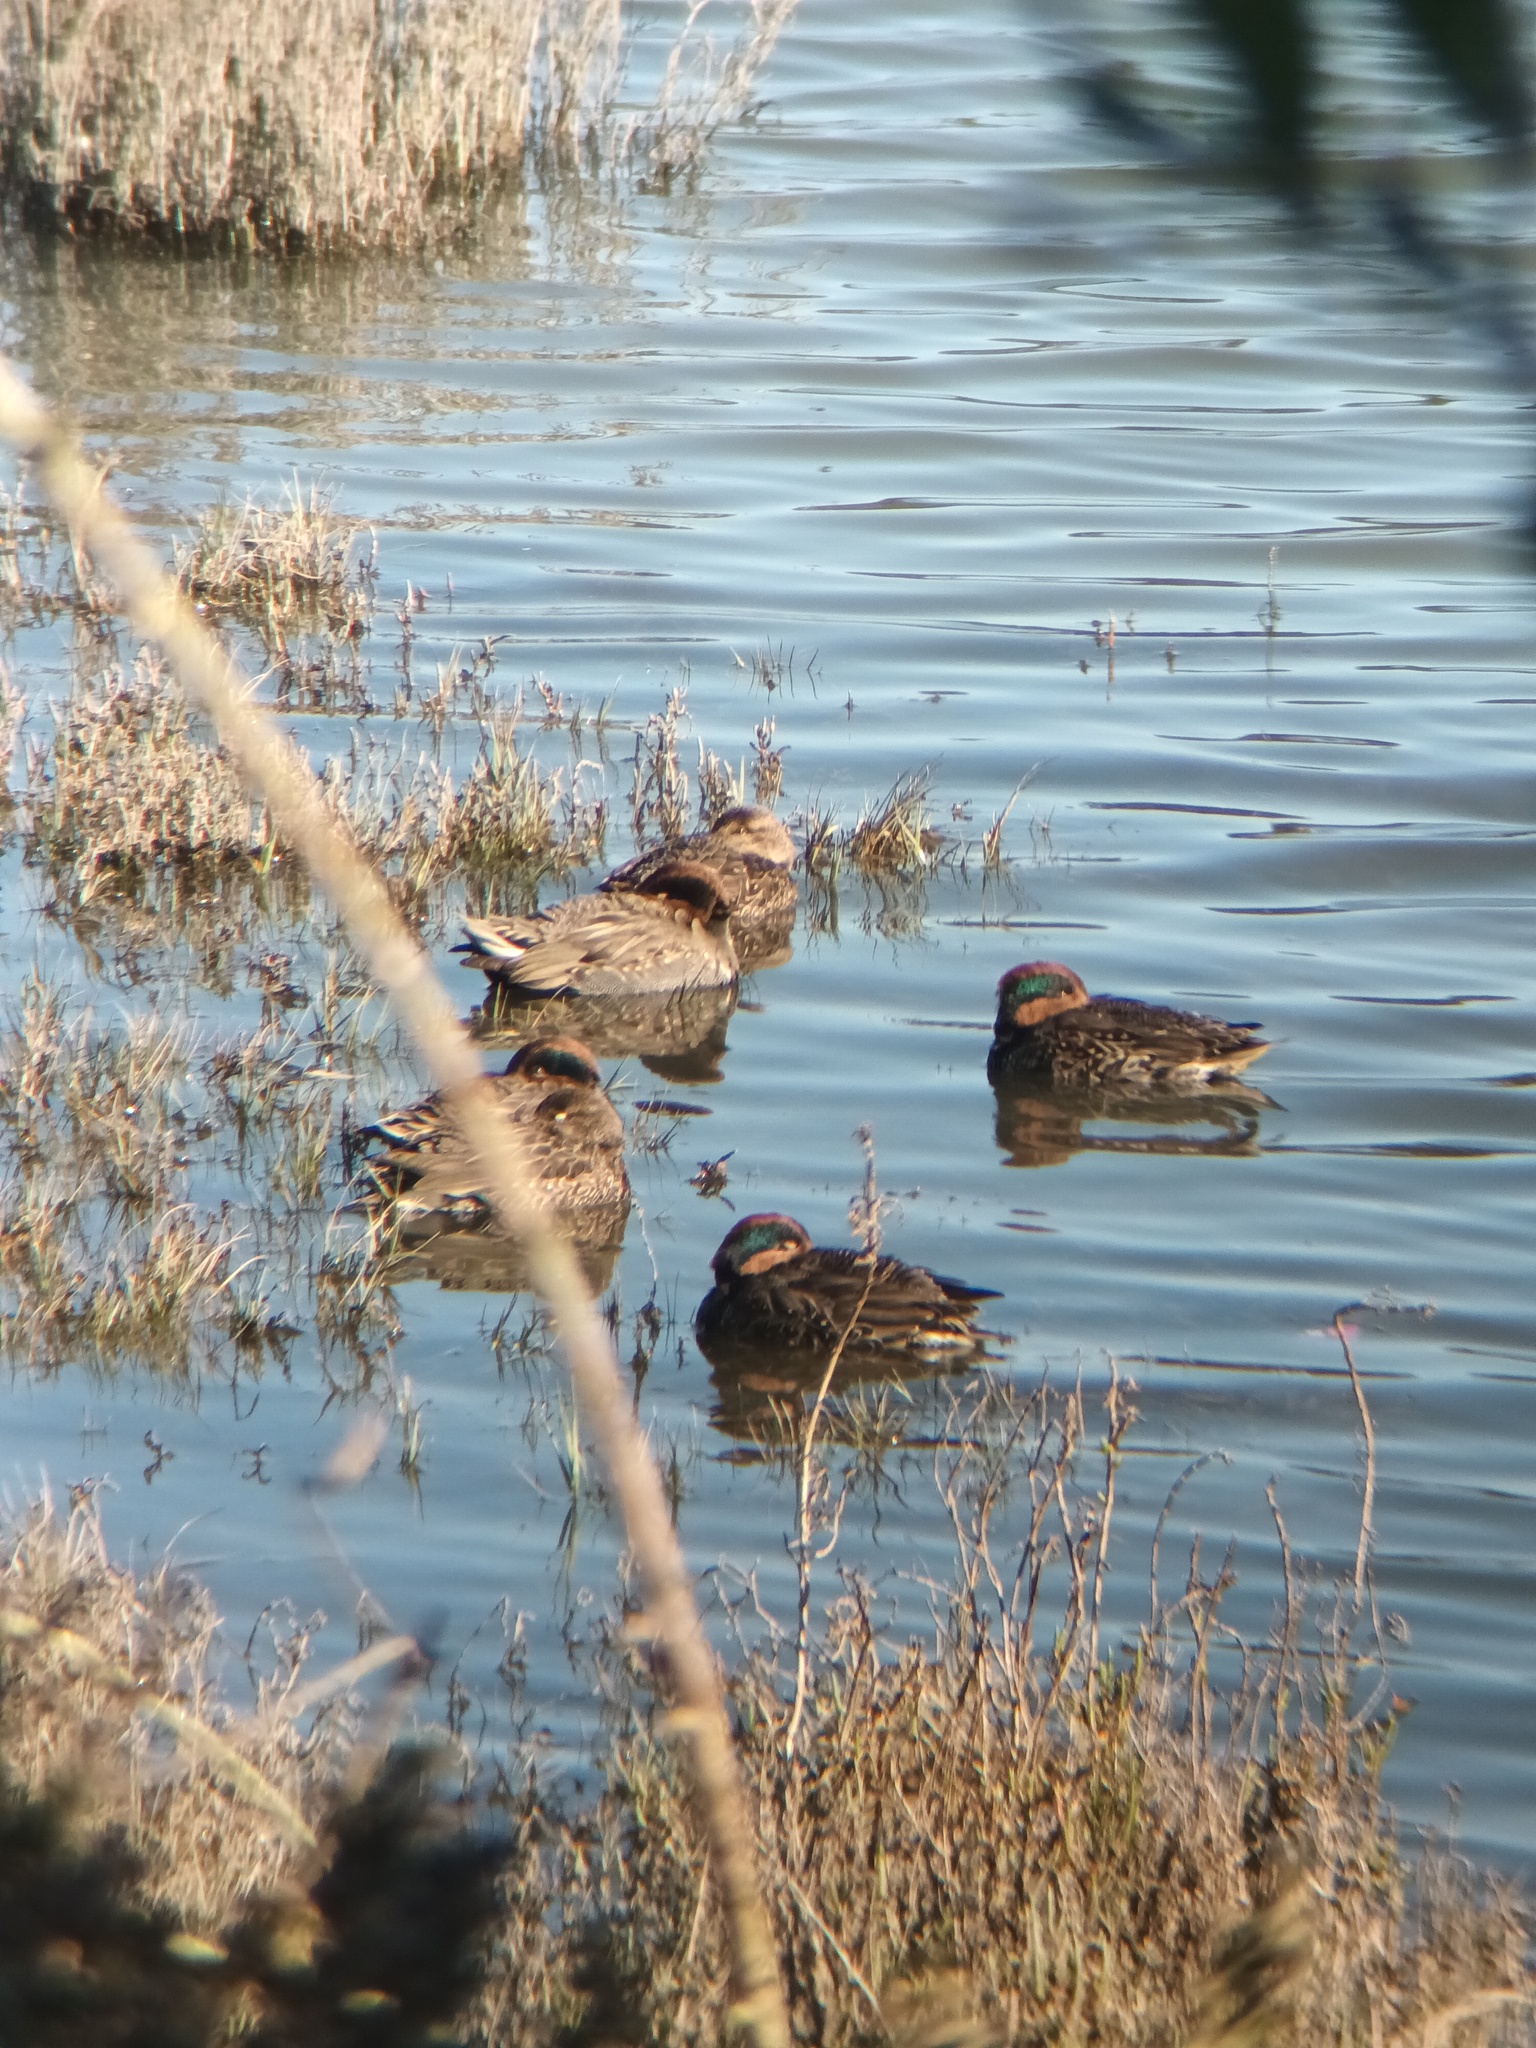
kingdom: Animalia
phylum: Chordata
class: Aves
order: Anseriformes
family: Anatidae
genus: Anas
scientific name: Anas crecca
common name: Eurasian teal
